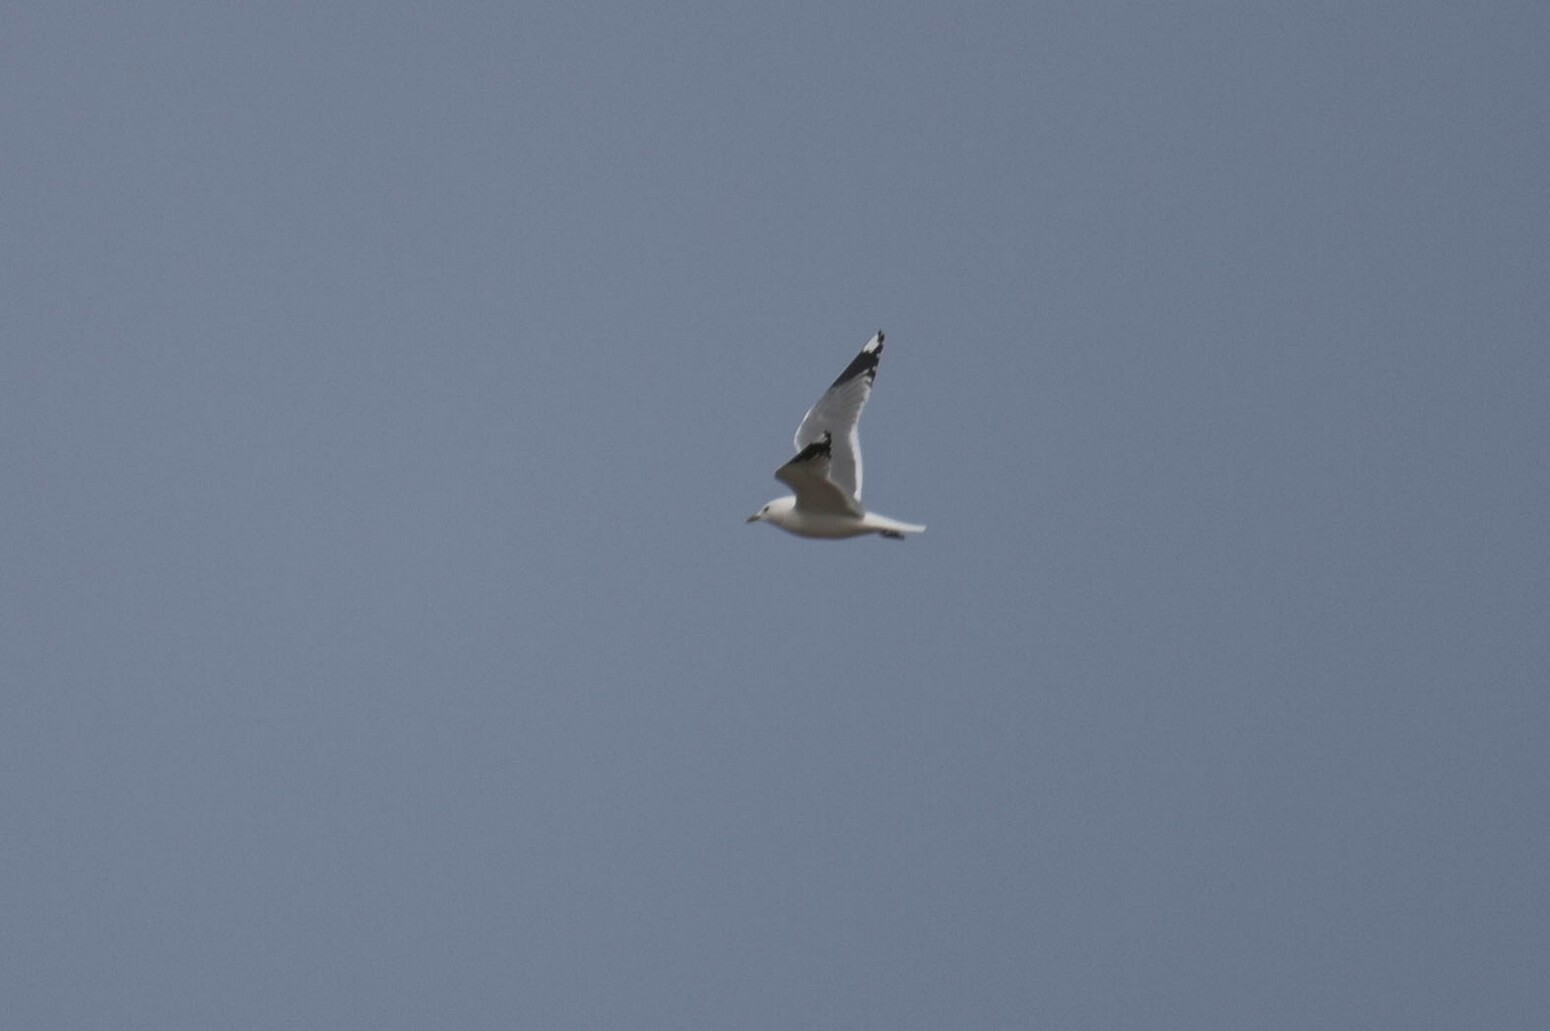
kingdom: Animalia
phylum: Chordata
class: Aves
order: Charadriiformes
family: Laridae
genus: Larus
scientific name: Larus canus
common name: Mew gull
